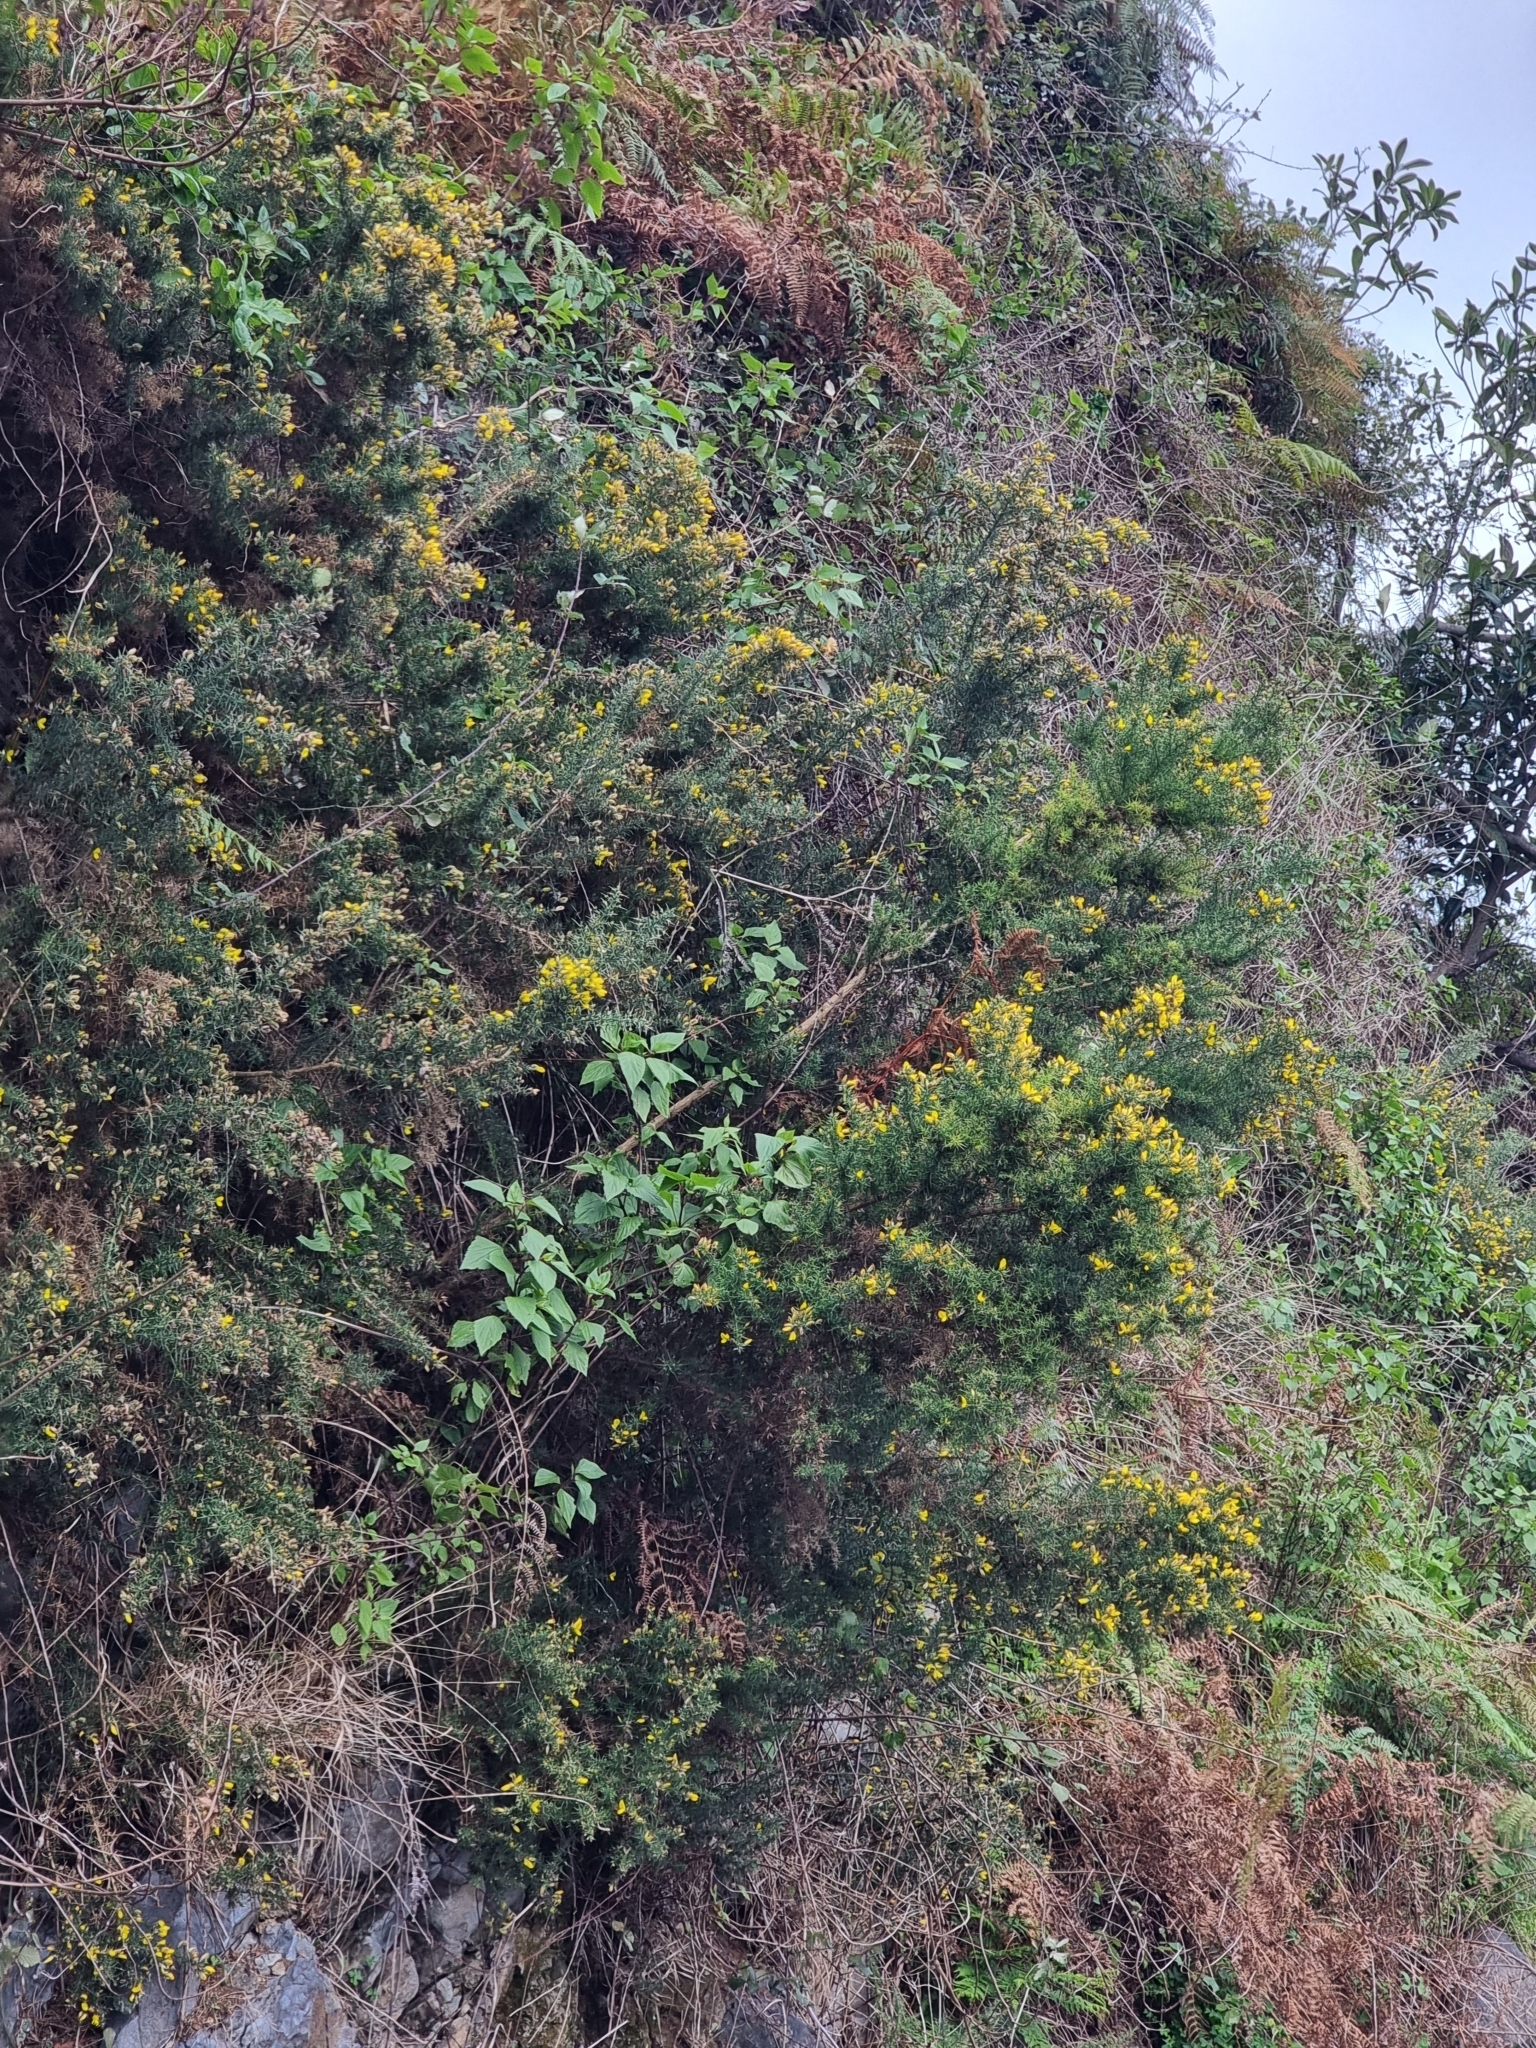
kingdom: Plantae
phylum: Tracheophyta
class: Magnoliopsida
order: Fabales
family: Fabaceae
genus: Ulex
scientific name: Ulex europaeus
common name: Common gorse
